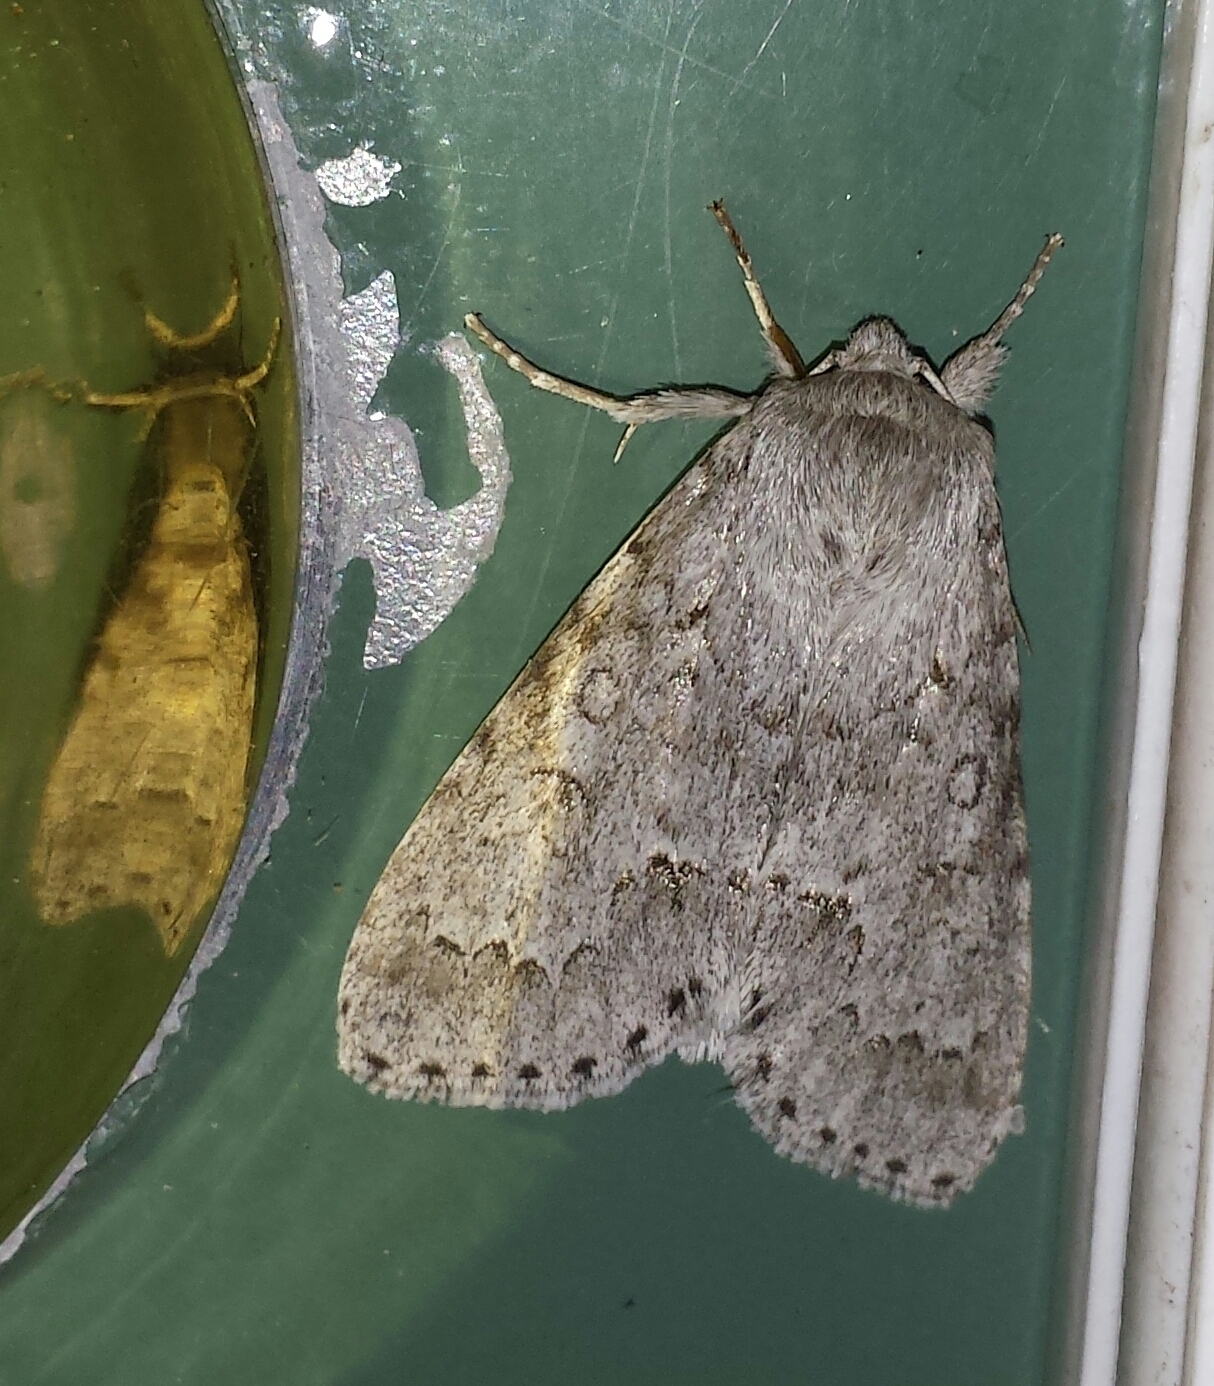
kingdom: Animalia
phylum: Arthropoda
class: Insecta
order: Lepidoptera
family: Noctuidae
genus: Acronicta
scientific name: Acronicta insita
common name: Large gray dagger
